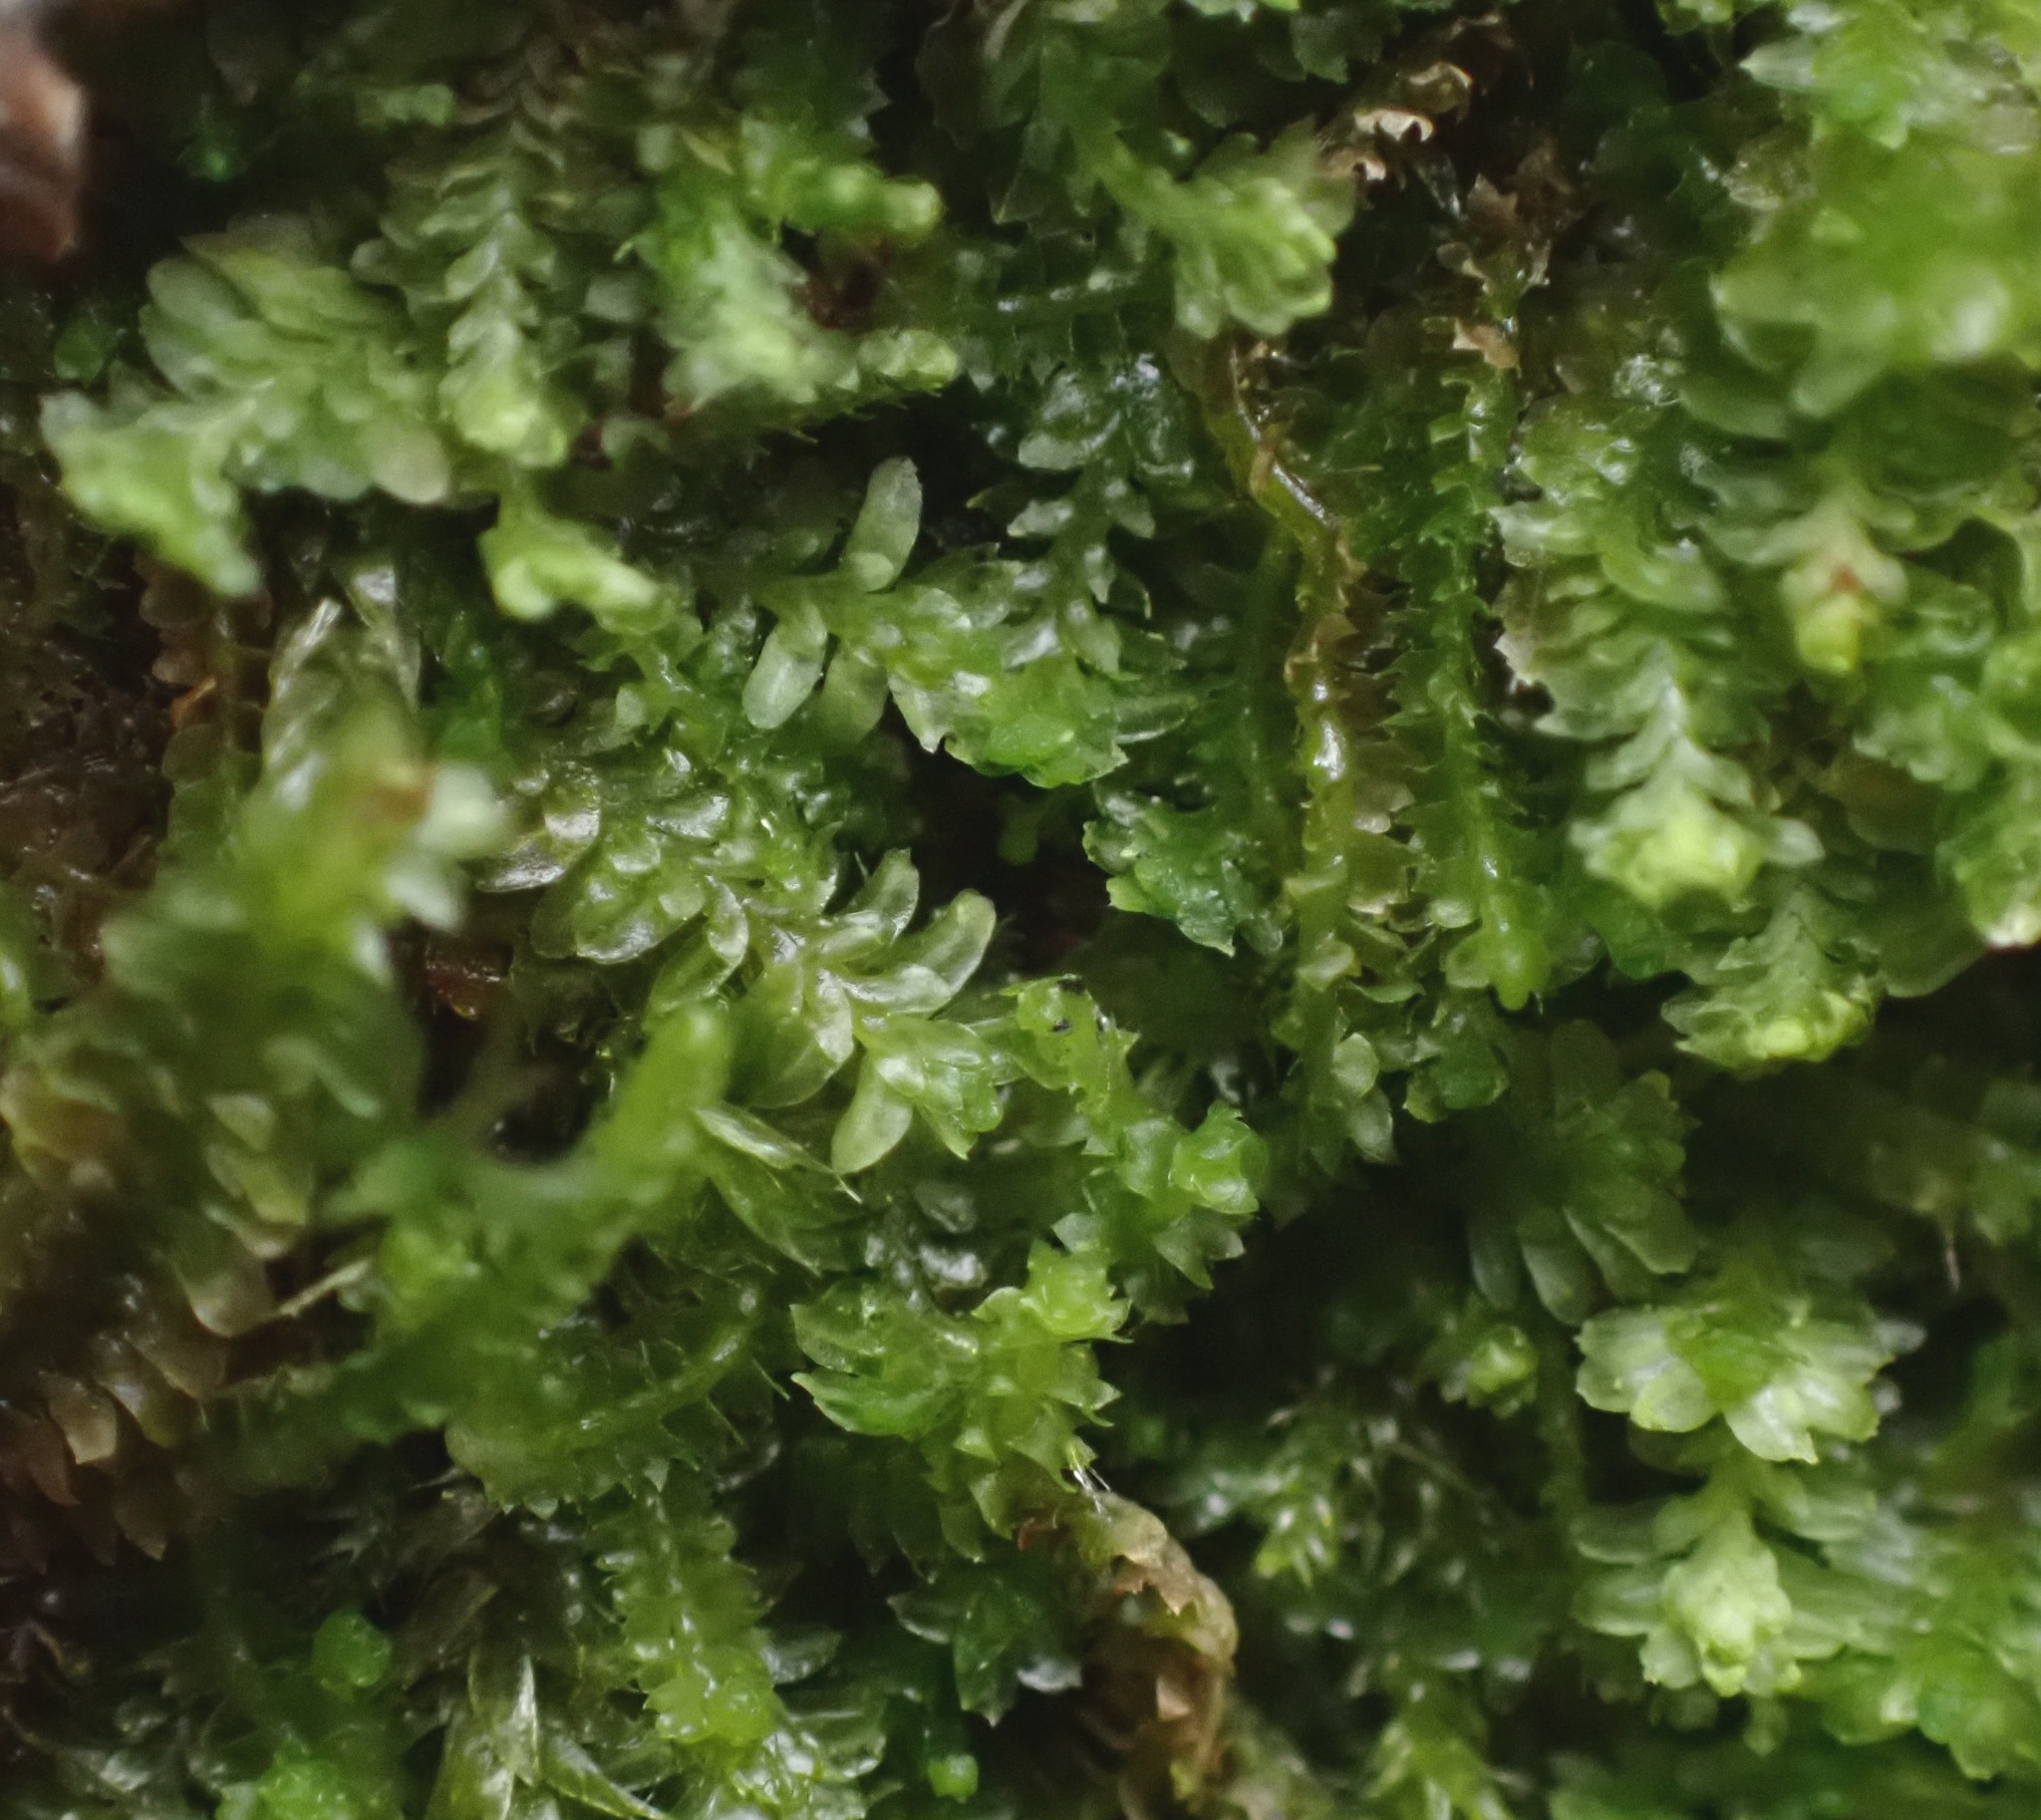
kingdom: Plantae
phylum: Marchantiophyta
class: Jungermanniopsida
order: Jungermanniales
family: Scapaniaceae
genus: Diplophyllum
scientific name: Diplophyllum albicans
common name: White earwort
